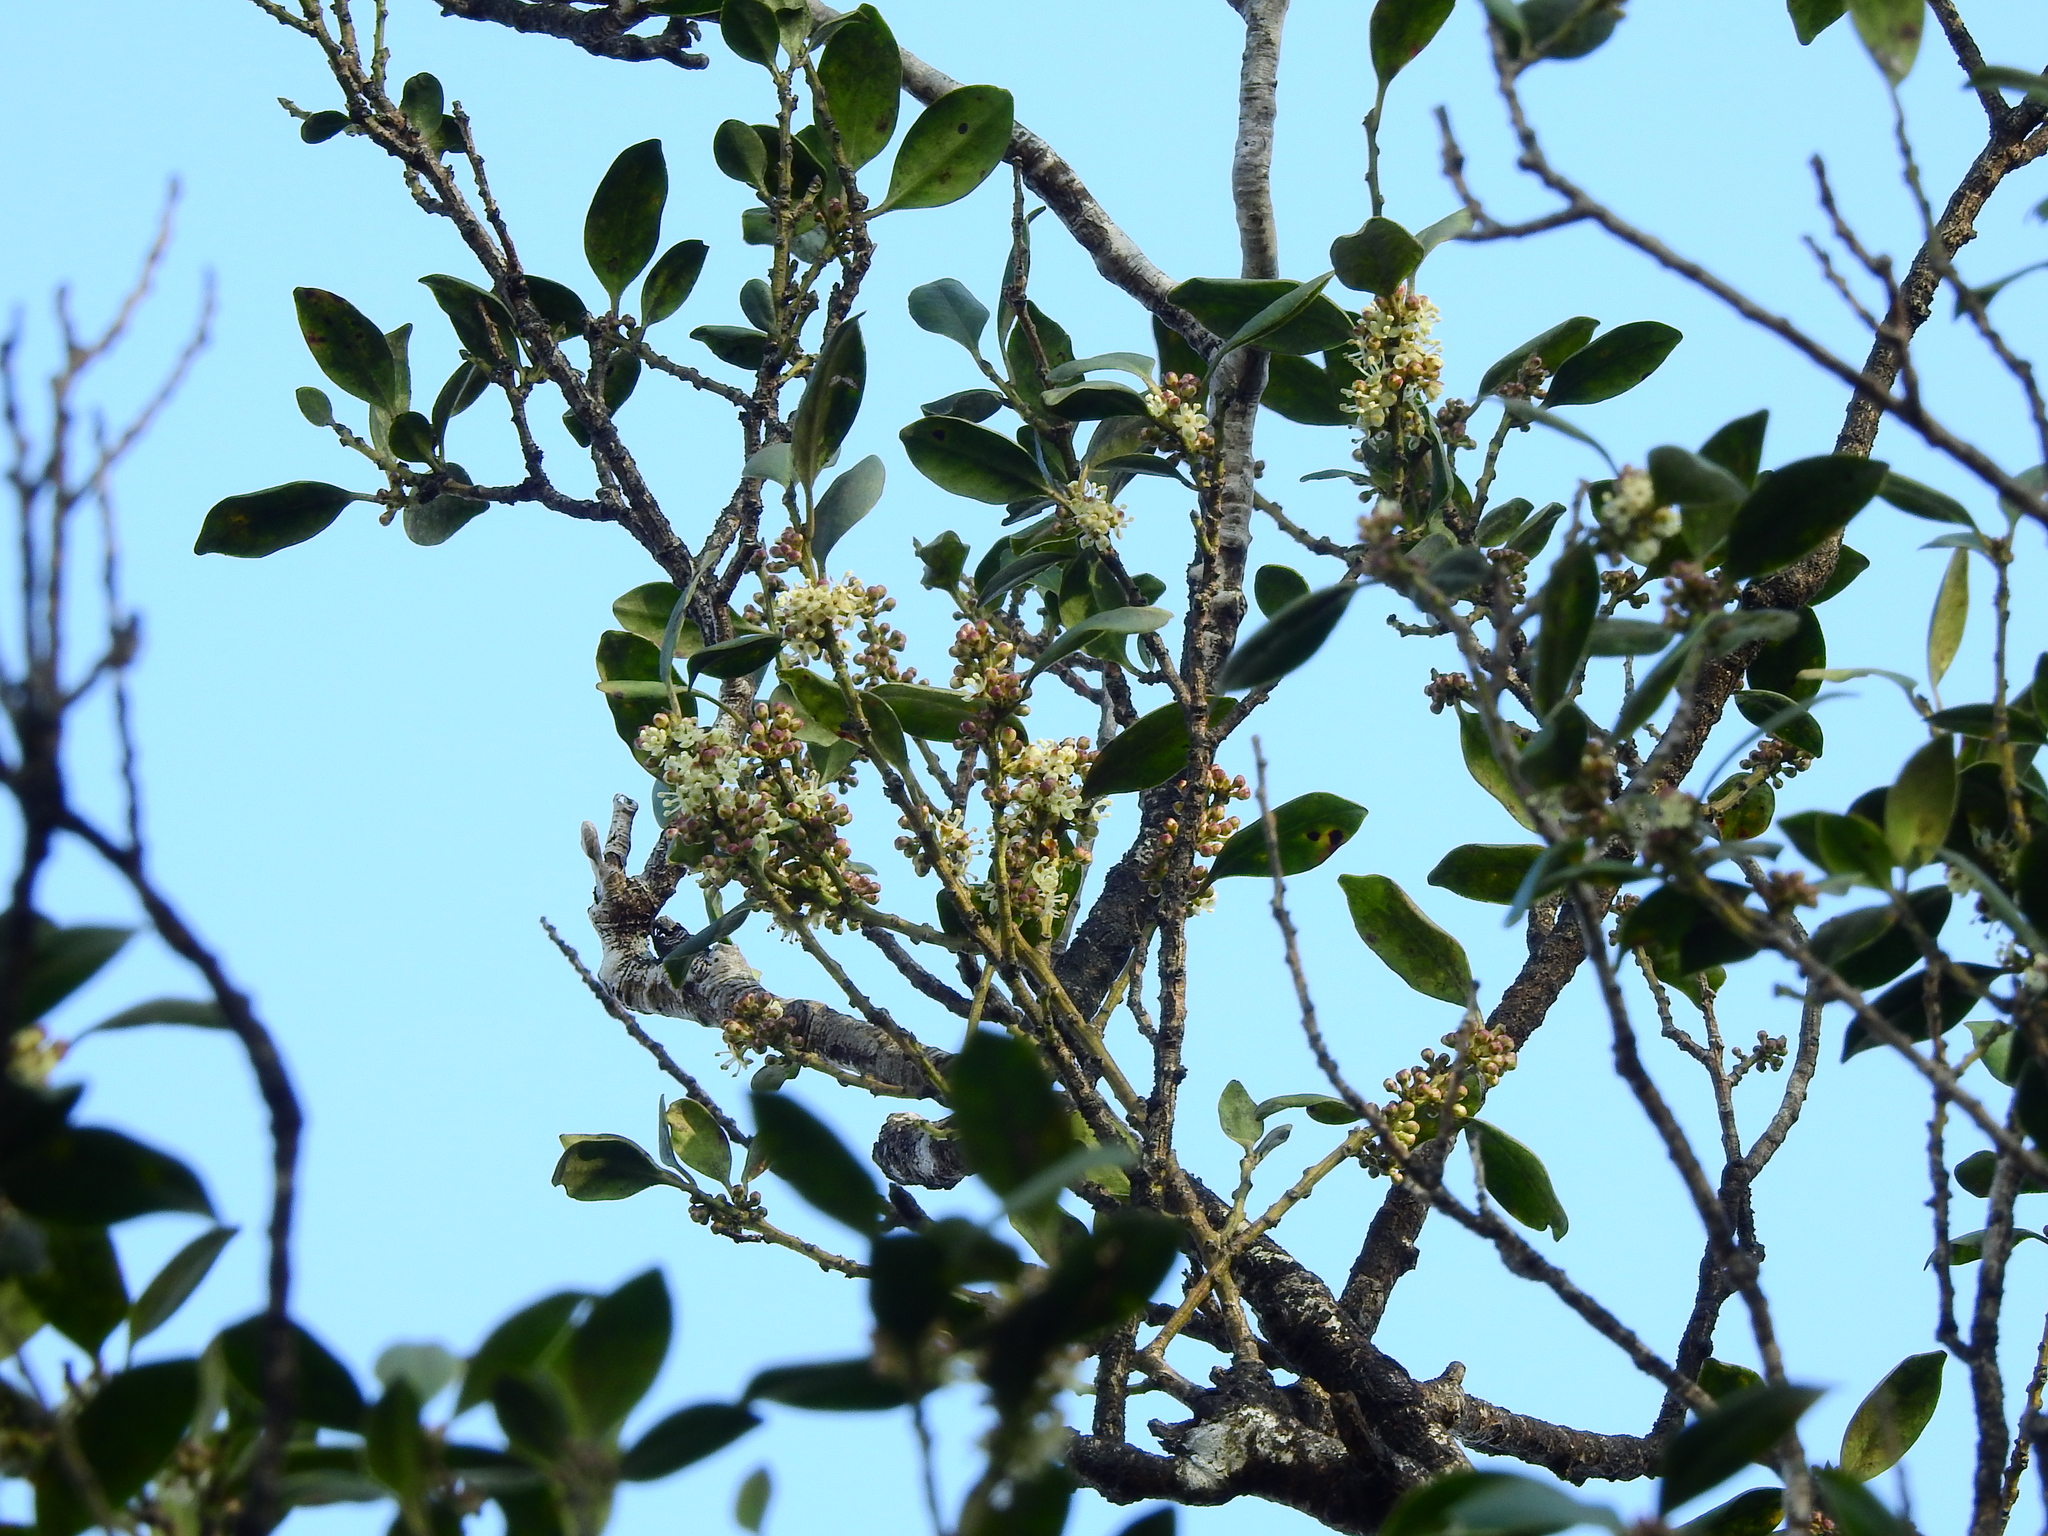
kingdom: Plantae
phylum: Tracheophyta
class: Magnoliopsida
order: Aquifoliales
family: Aquifoliaceae
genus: Ilex
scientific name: Ilex suzukii
